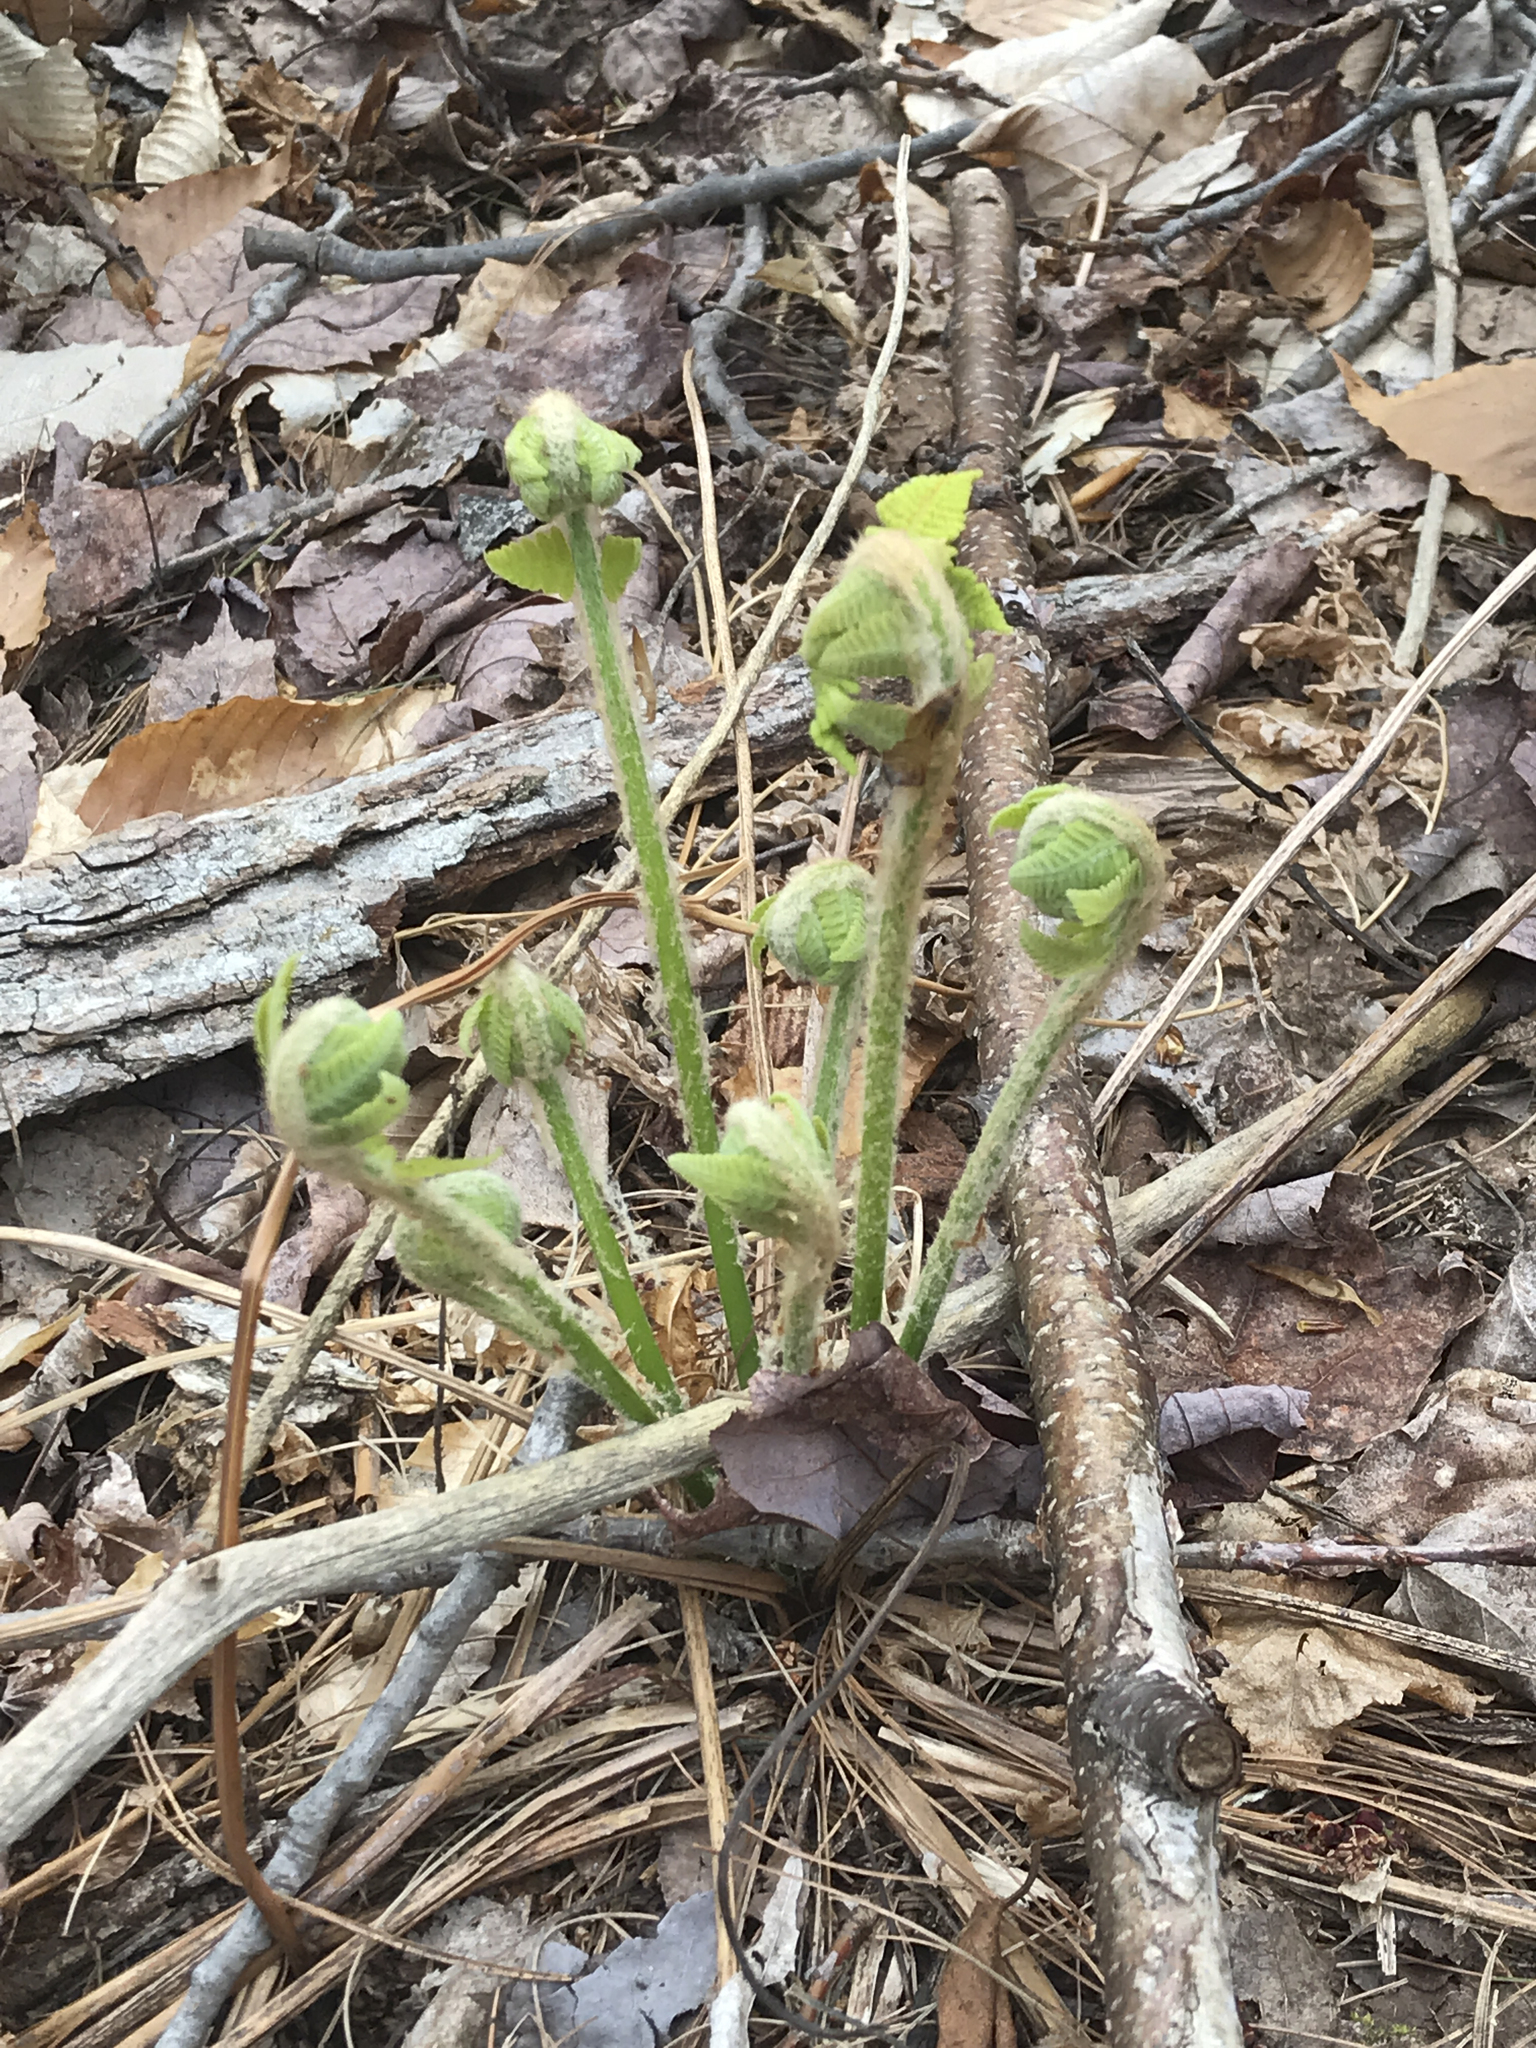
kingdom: Plantae
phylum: Tracheophyta
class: Polypodiopsida
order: Osmundales
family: Osmundaceae
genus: Claytosmunda
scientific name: Claytosmunda claytoniana
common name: Clayton's fern
